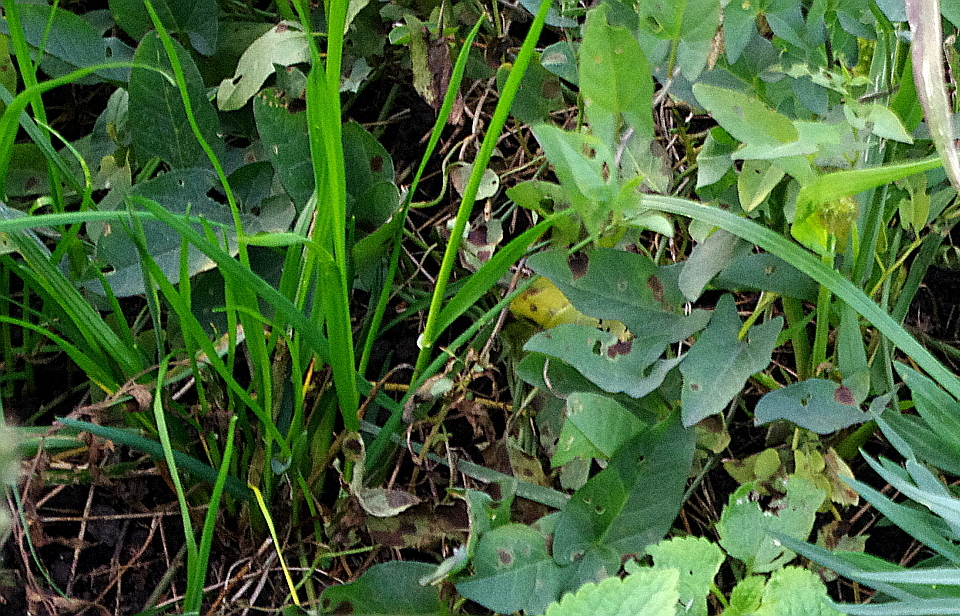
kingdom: Plantae
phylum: Tracheophyta
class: Magnoliopsida
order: Solanales
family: Convolvulaceae
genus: Convolvulus
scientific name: Convolvulus arvensis
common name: Field bindweed
